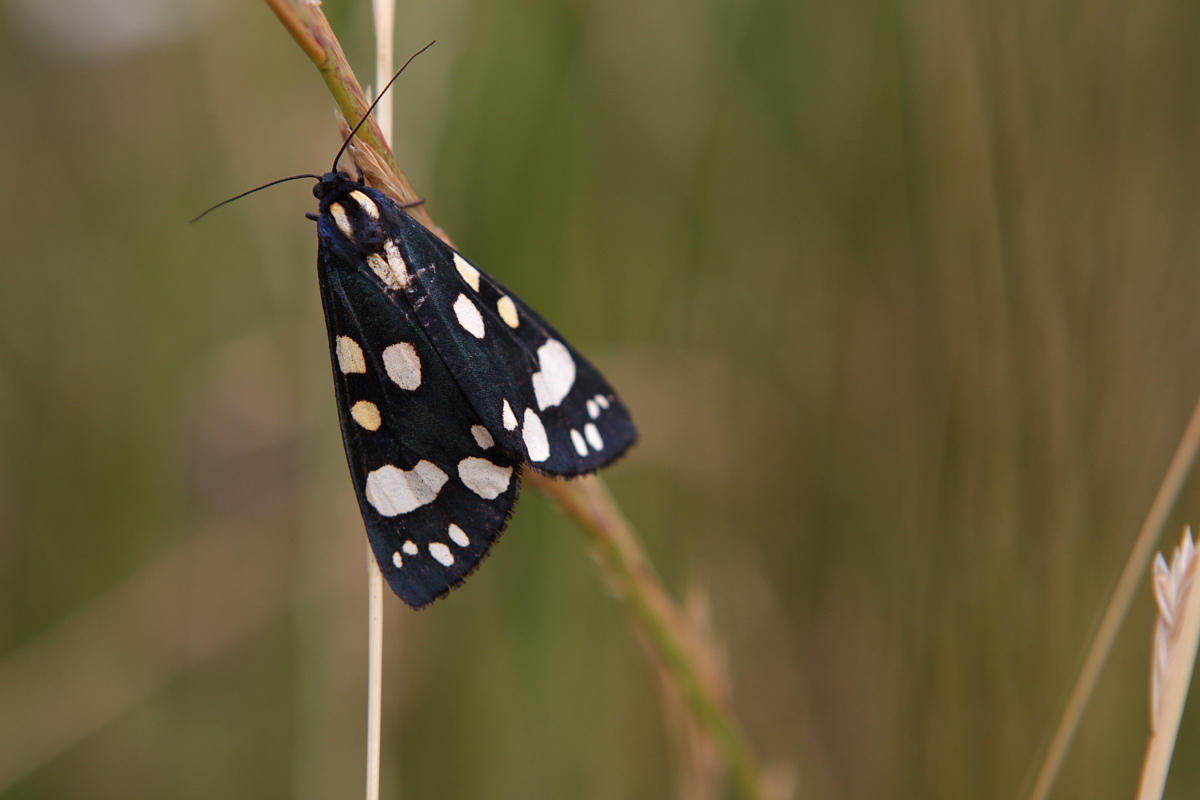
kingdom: Animalia
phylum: Arthropoda
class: Insecta
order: Lepidoptera
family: Erebidae
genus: Callimorpha
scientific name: Callimorpha dominula
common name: Scarlet tiger
